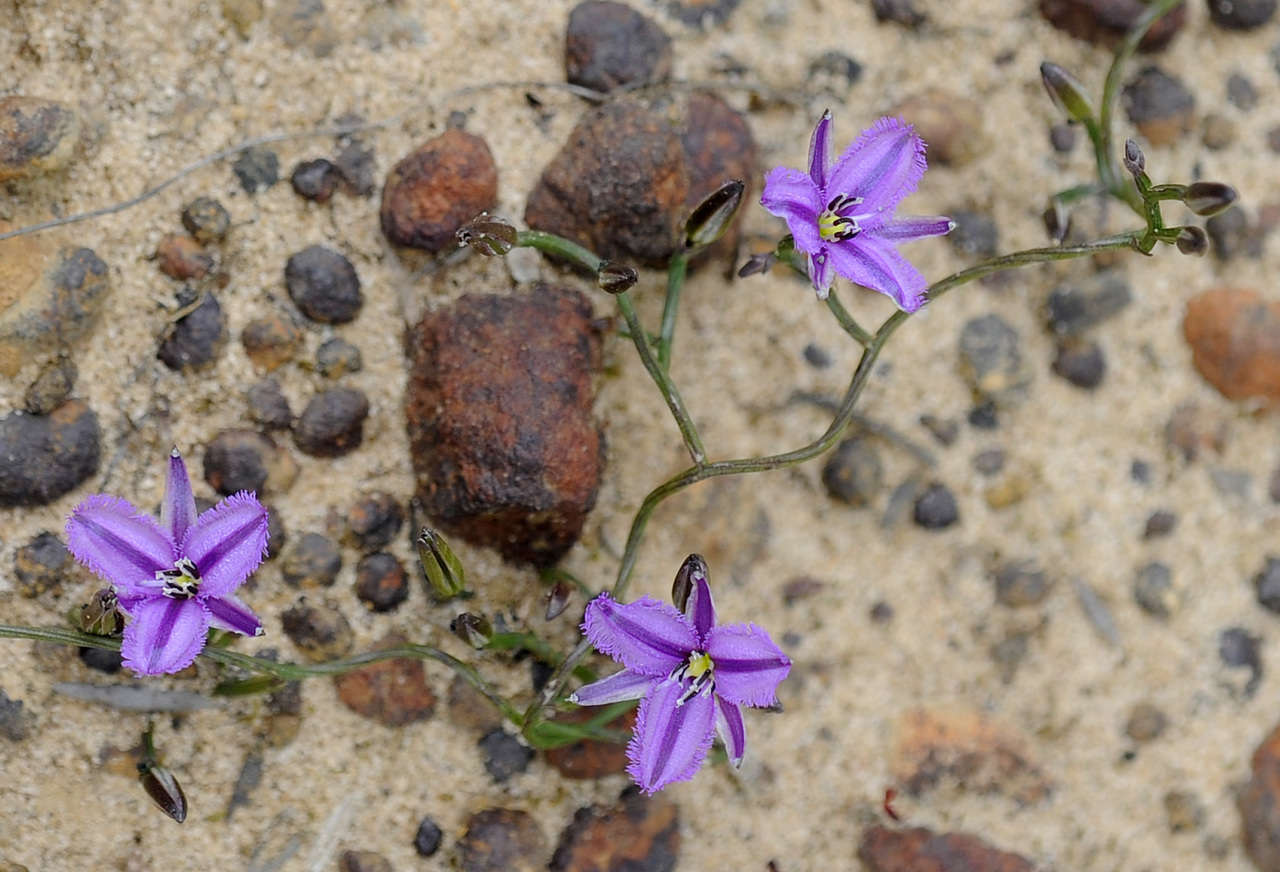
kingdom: Plantae
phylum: Tracheophyta
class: Liliopsida
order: Asparagales
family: Asparagaceae
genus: Thysanotus
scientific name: Thysanotus patersonii
